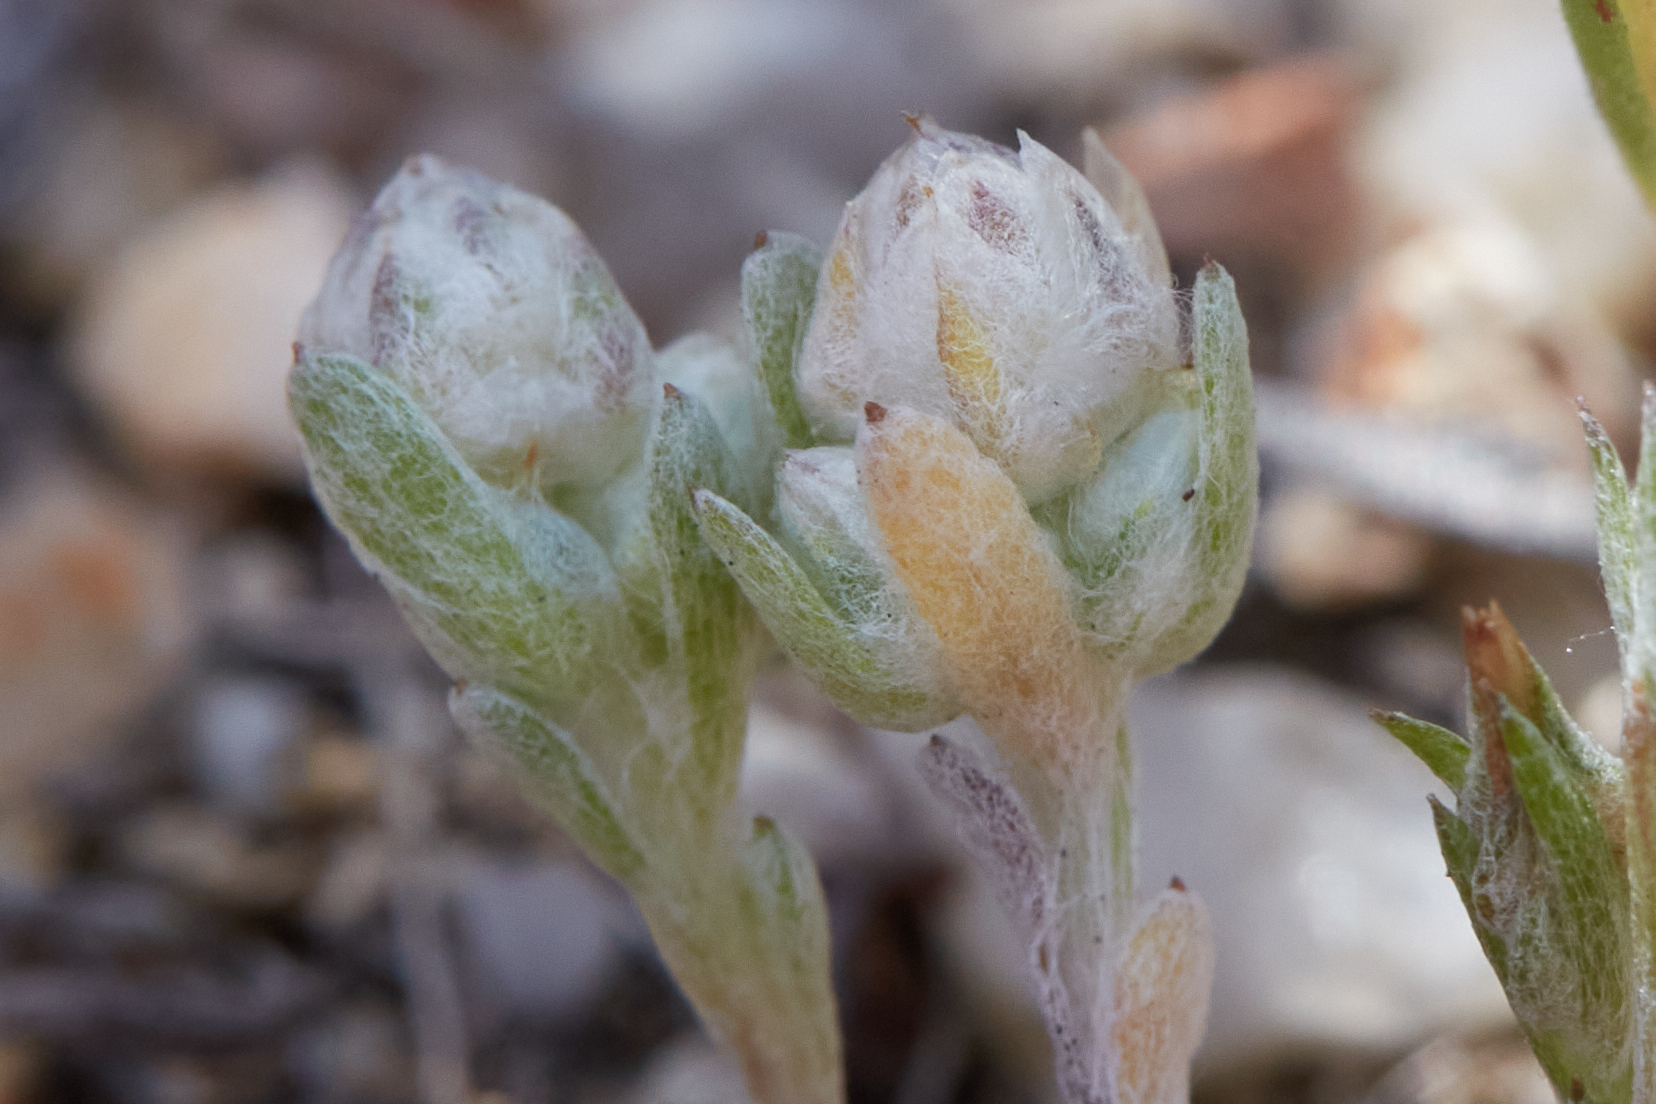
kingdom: Plantae
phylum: Tracheophyta
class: Magnoliopsida
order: Asterales
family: Asteraceae
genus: Stylocline
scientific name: Stylocline gnaphaloides
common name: Everlasting nest-straw
